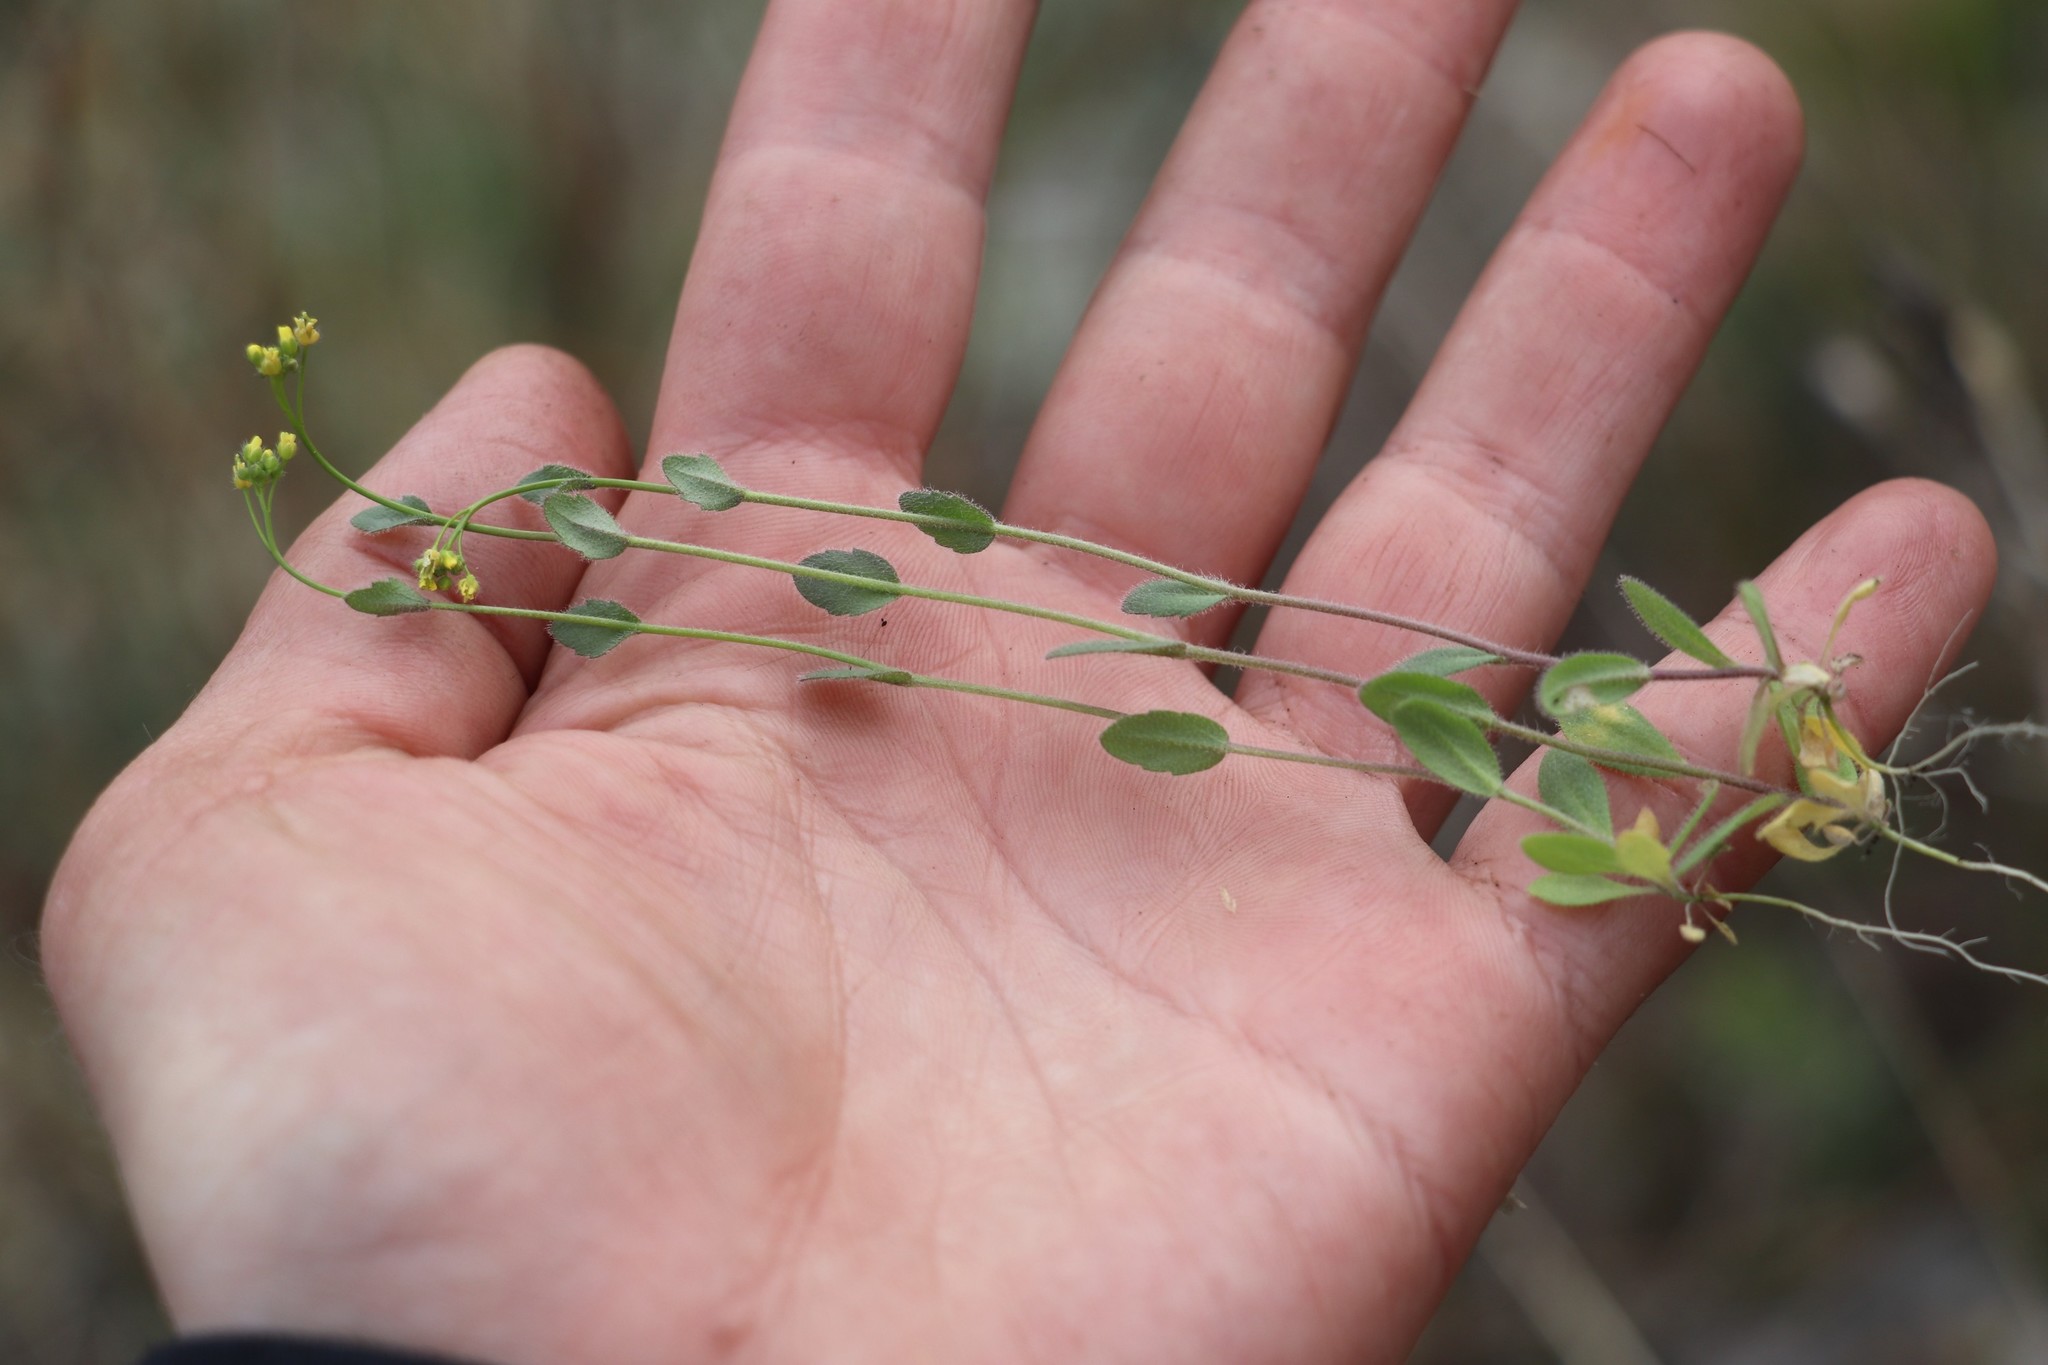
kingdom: Plantae
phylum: Tracheophyta
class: Magnoliopsida
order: Brassicales
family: Brassicaceae
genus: Draba
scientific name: Draba nemorosa
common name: Wood whitlow-grass
